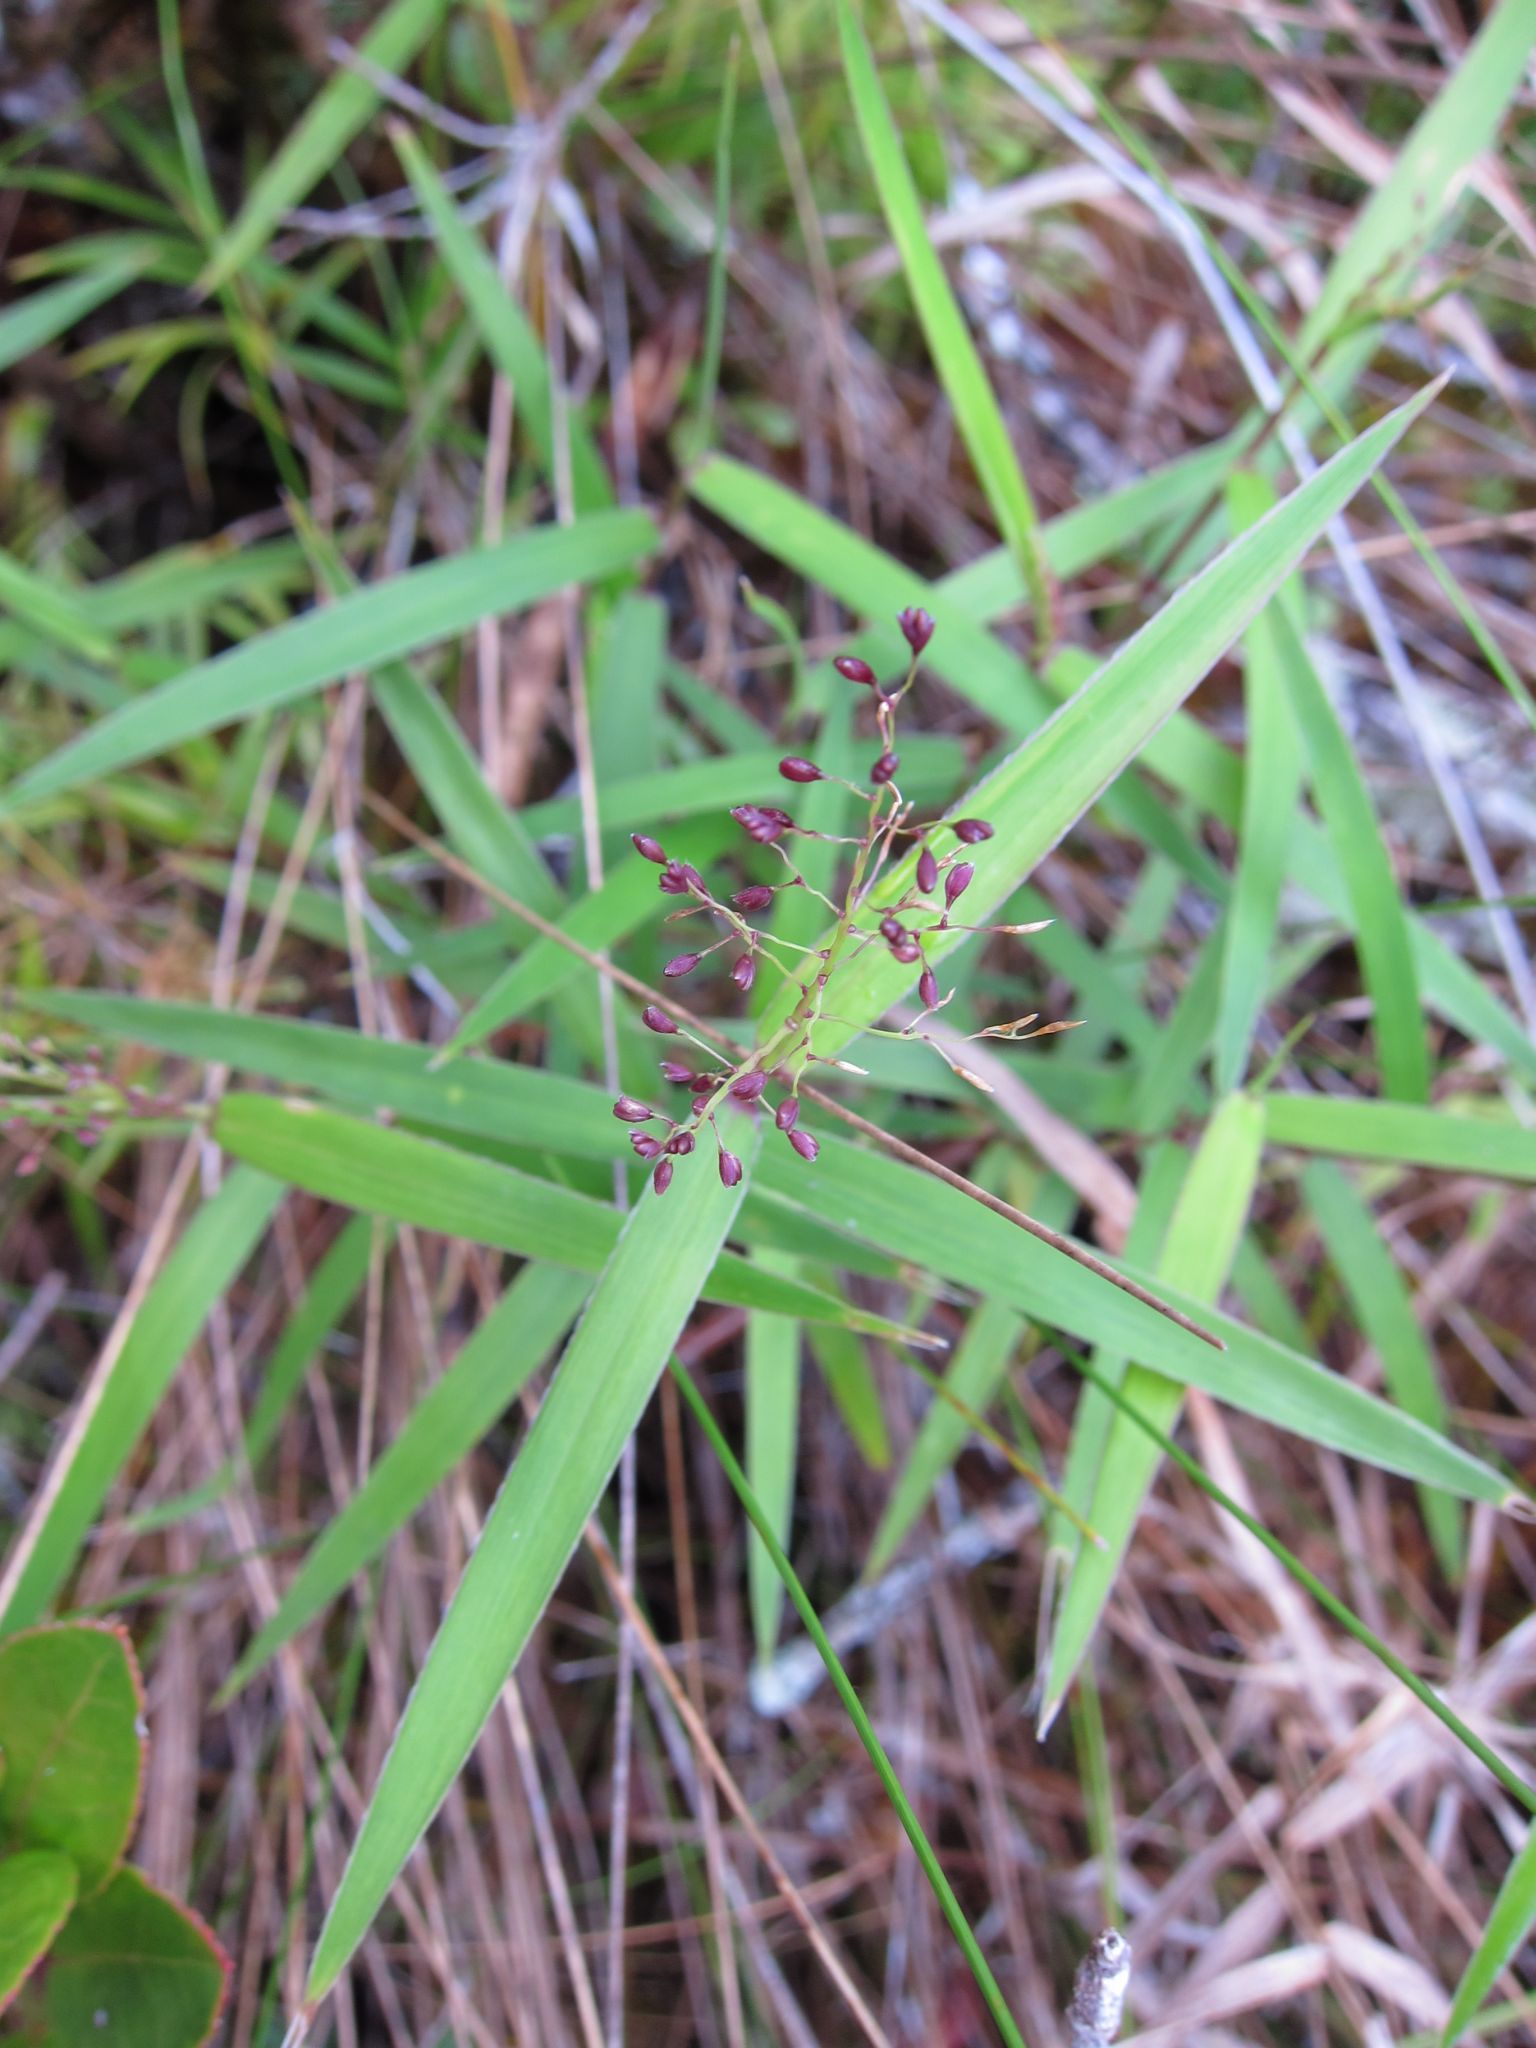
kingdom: Plantae
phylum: Tracheophyta
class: Liliopsida
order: Poales
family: Poaceae
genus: Isachne
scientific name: Isachne humbertiana
